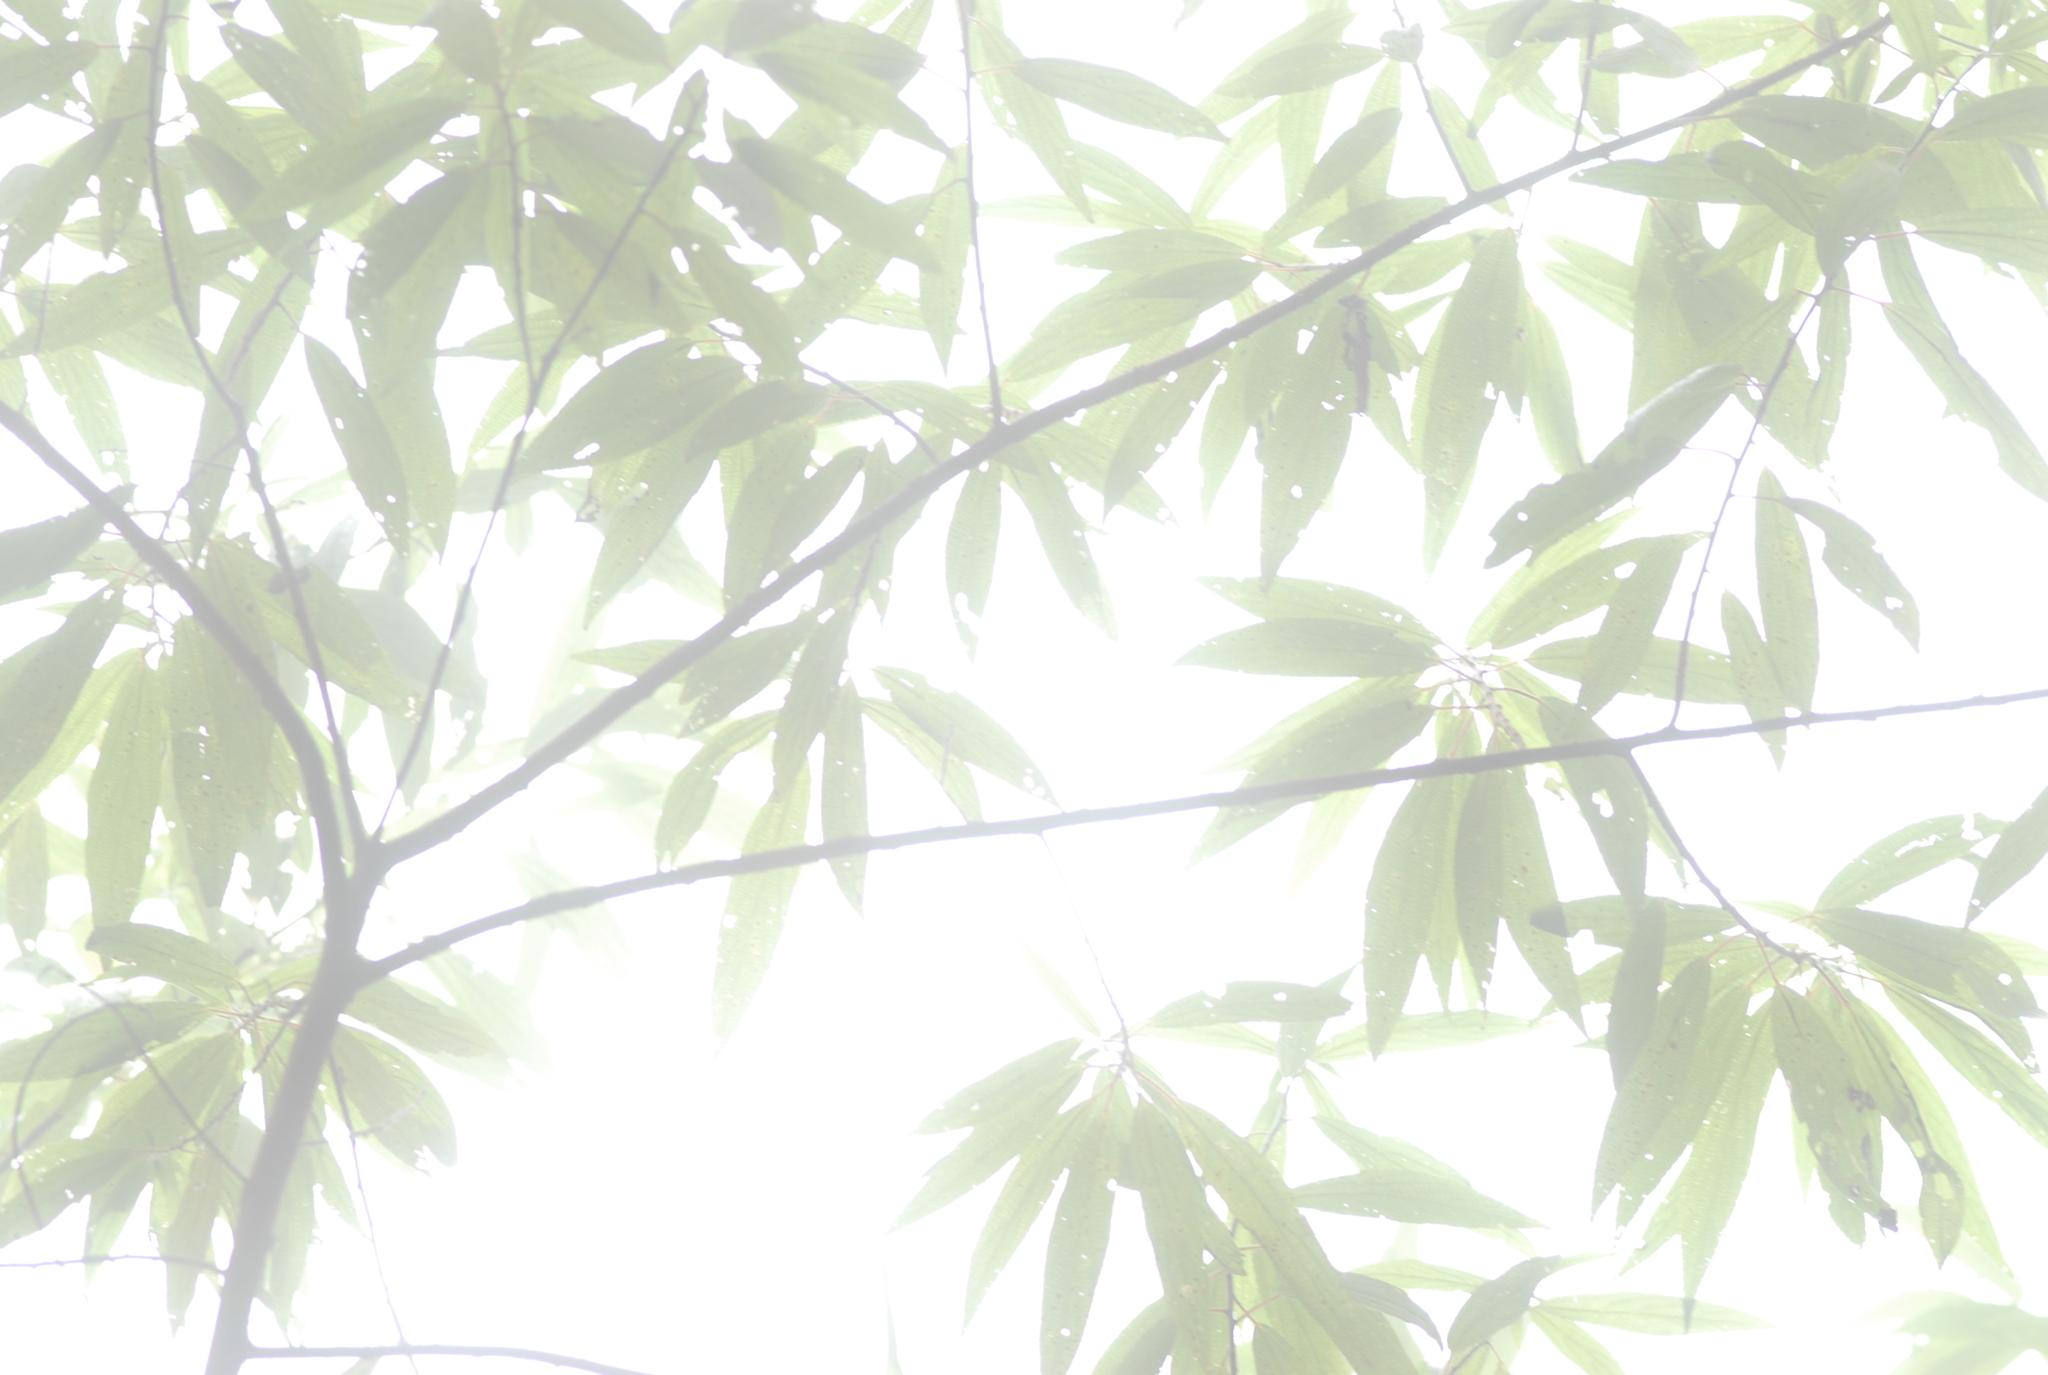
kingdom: Plantae
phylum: Tracheophyta
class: Magnoliopsida
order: Rosales
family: Urticaceae
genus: Debregeasia
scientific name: Debregeasia orientalis
